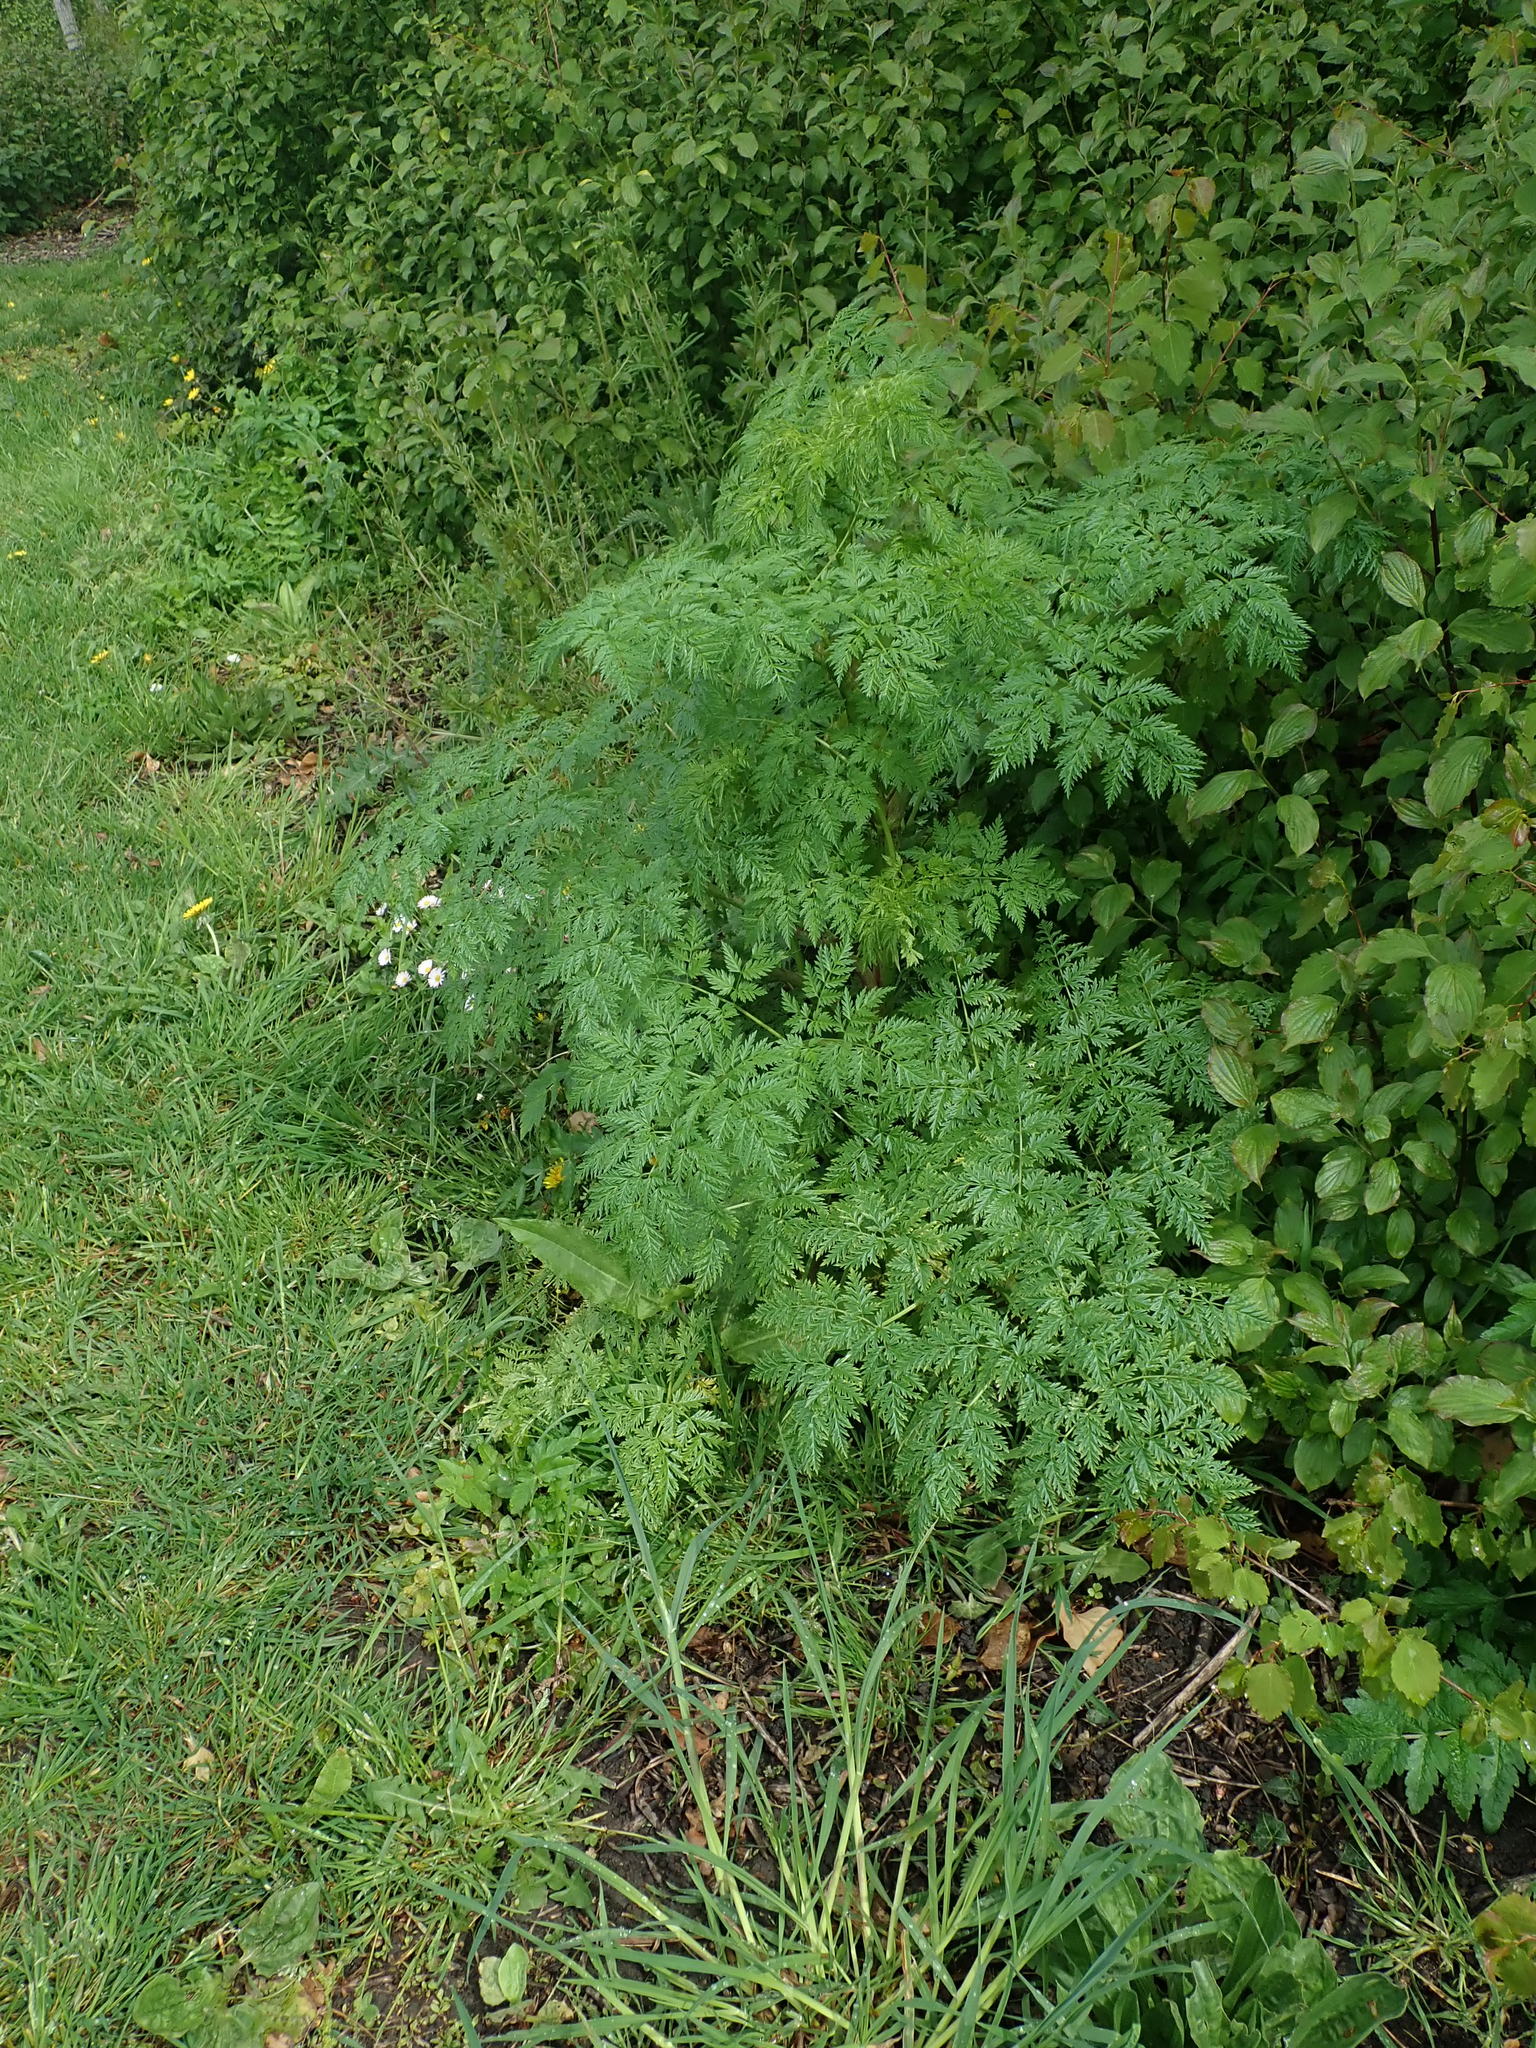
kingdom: Plantae
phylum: Tracheophyta
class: Magnoliopsida
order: Apiales
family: Apiaceae
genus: Conium
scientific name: Conium maculatum
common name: Hemlock
